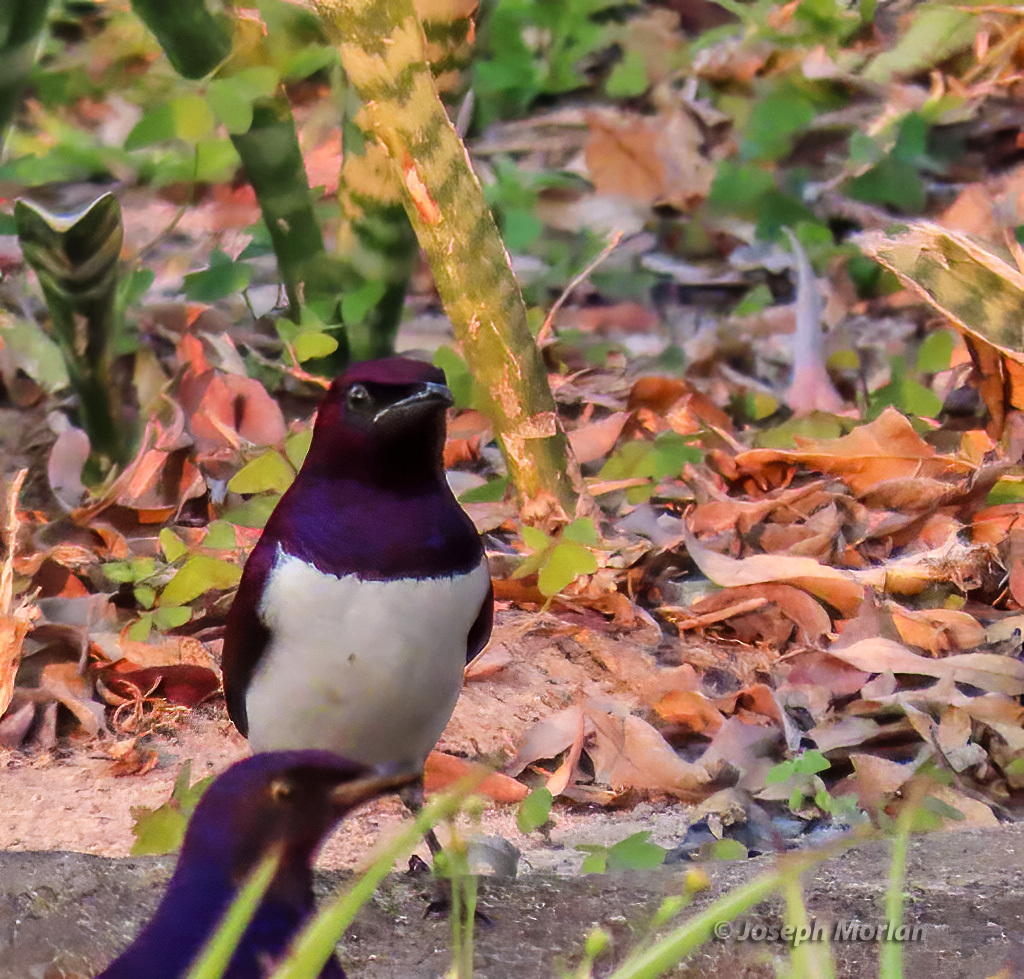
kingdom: Animalia
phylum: Chordata
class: Aves
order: Passeriformes
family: Sturnidae
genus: Cinnyricinclus
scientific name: Cinnyricinclus leucogaster
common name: Violet-backed starling
